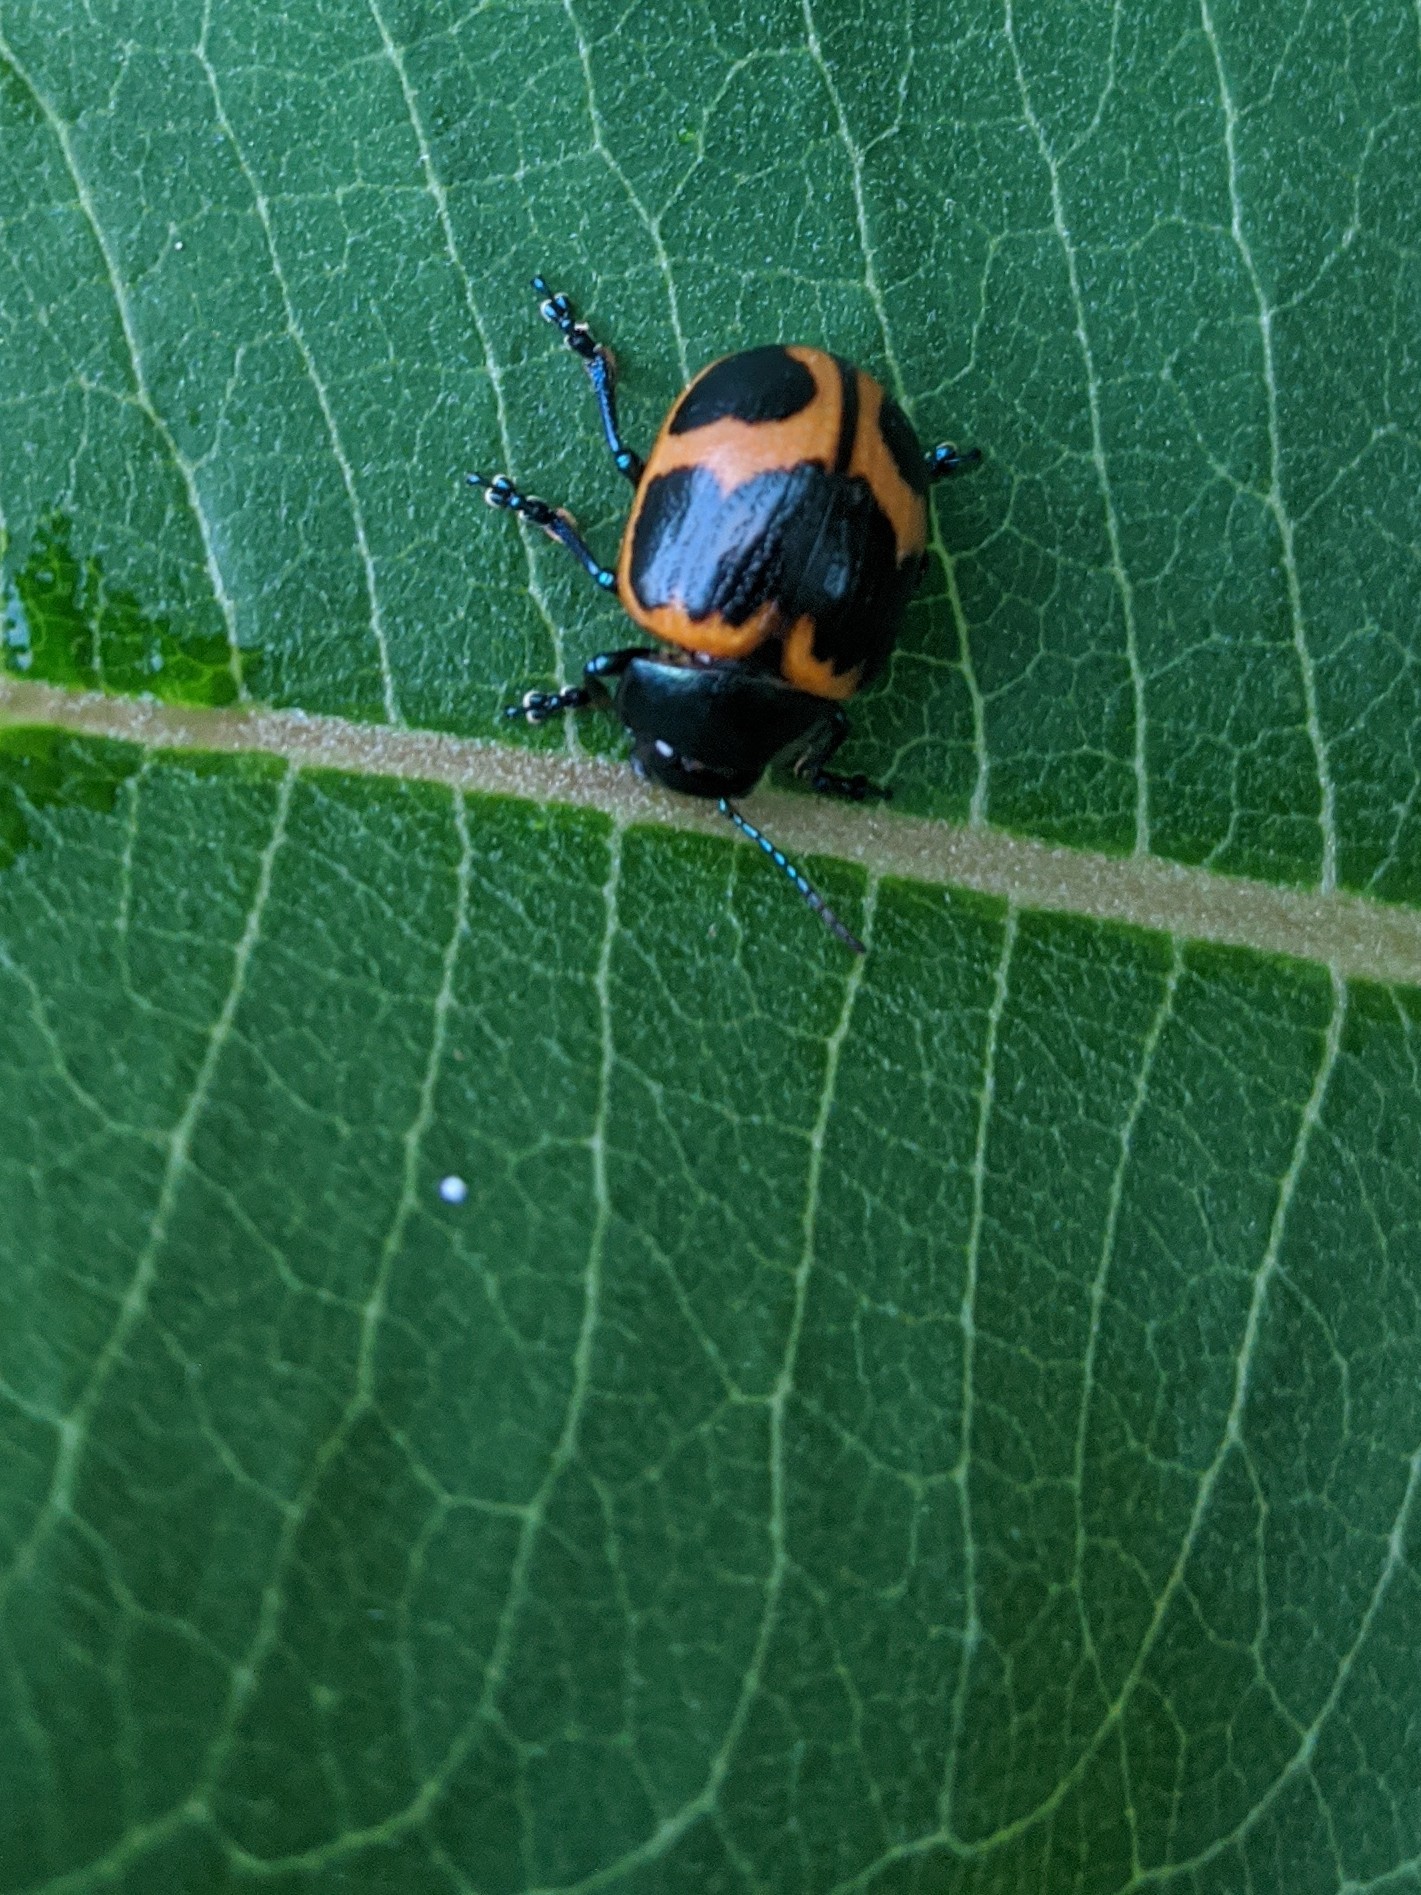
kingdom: Animalia
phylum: Arthropoda
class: Insecta
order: Coleoptera
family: Chrysomelidae
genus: Labidomera
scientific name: Labidomera clivicollis
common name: Swamp milkweed leaf beetle
